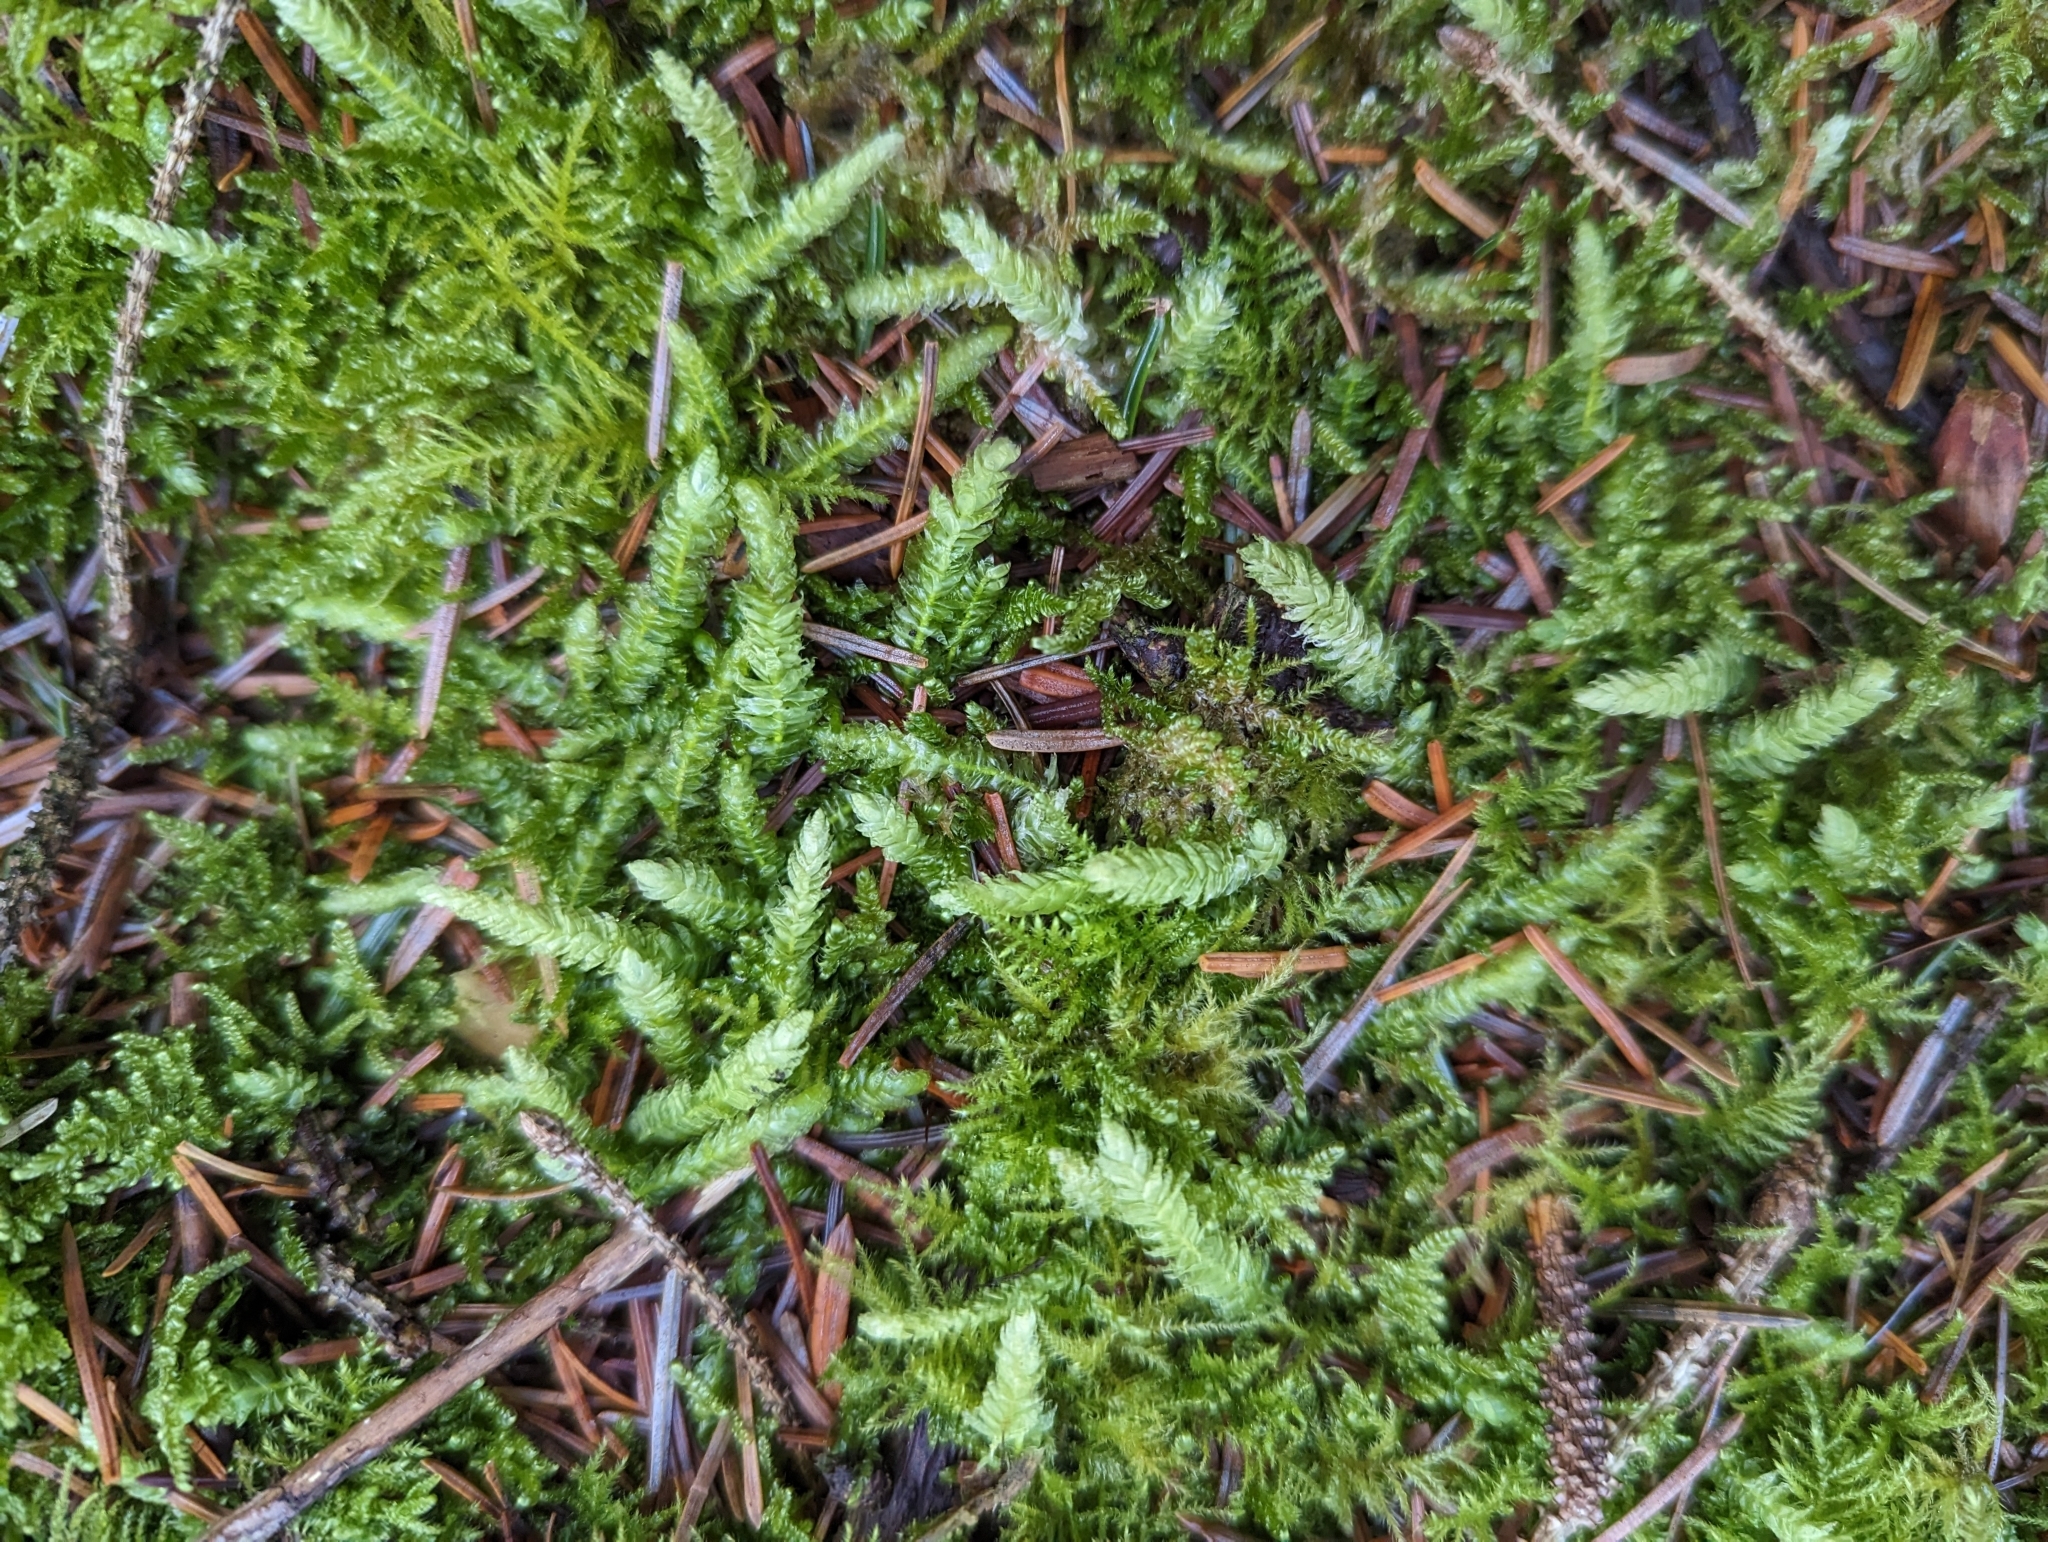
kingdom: Plantae
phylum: Bryophyta
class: Bryopsida
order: Hypnales
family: Plagiotheciaceae
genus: Plagiothecium
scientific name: Plagiothecium undulatum
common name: Waved silk-moss
